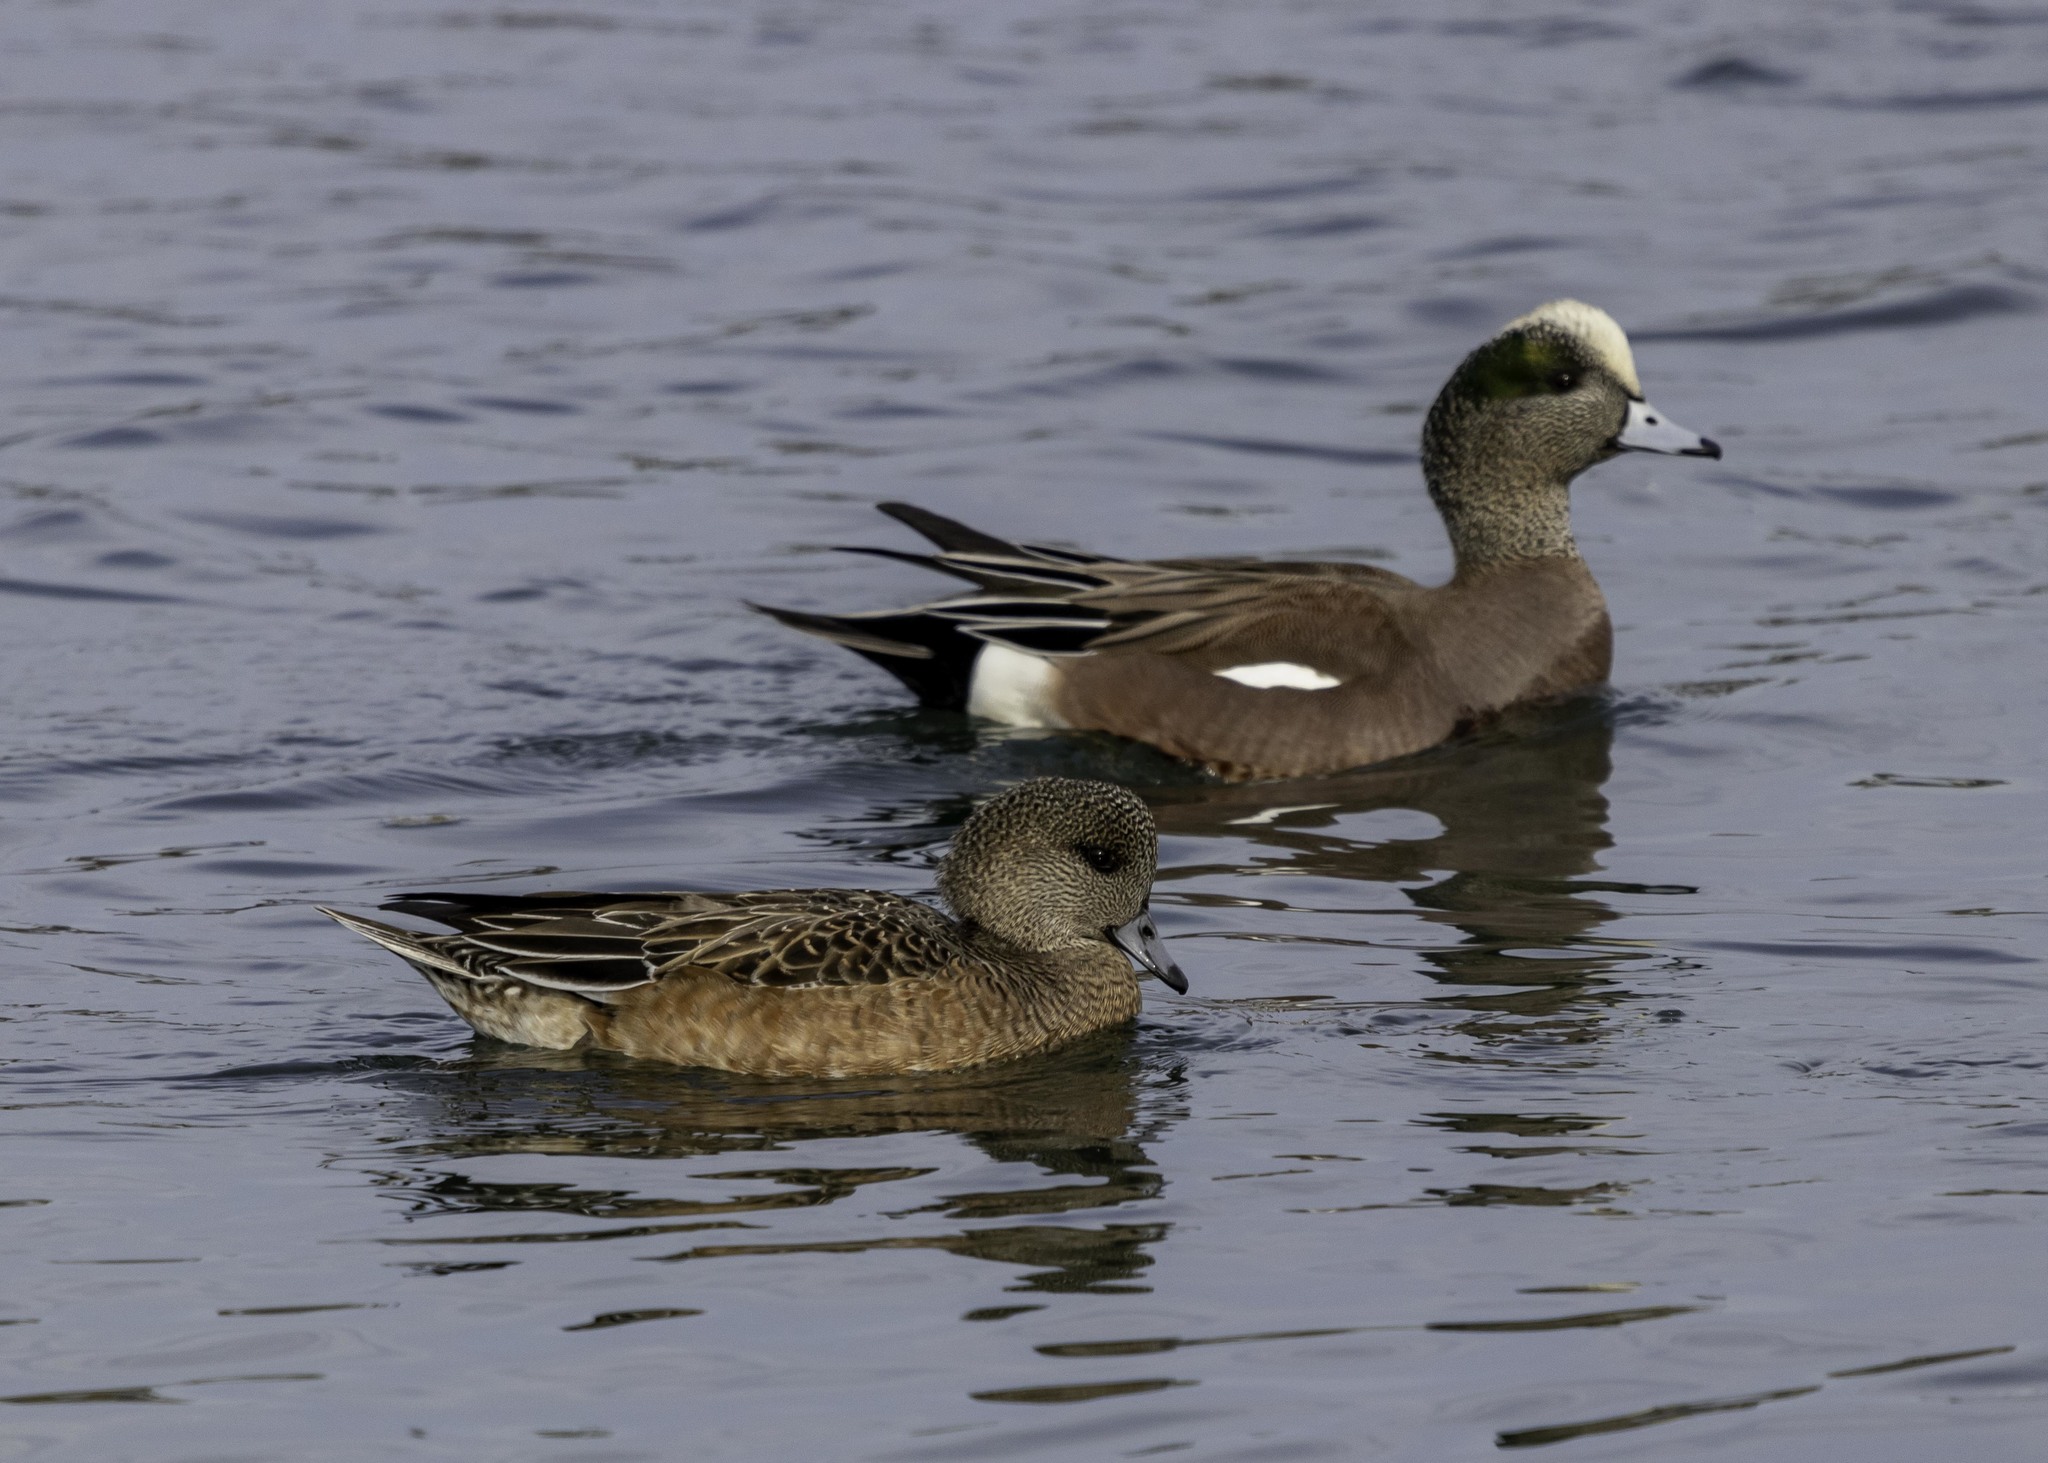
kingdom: Animalia
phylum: Chordata
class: Aves
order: Anseriformes
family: Anatidae
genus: Mareca
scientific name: Mareca americana
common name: American wigeon
